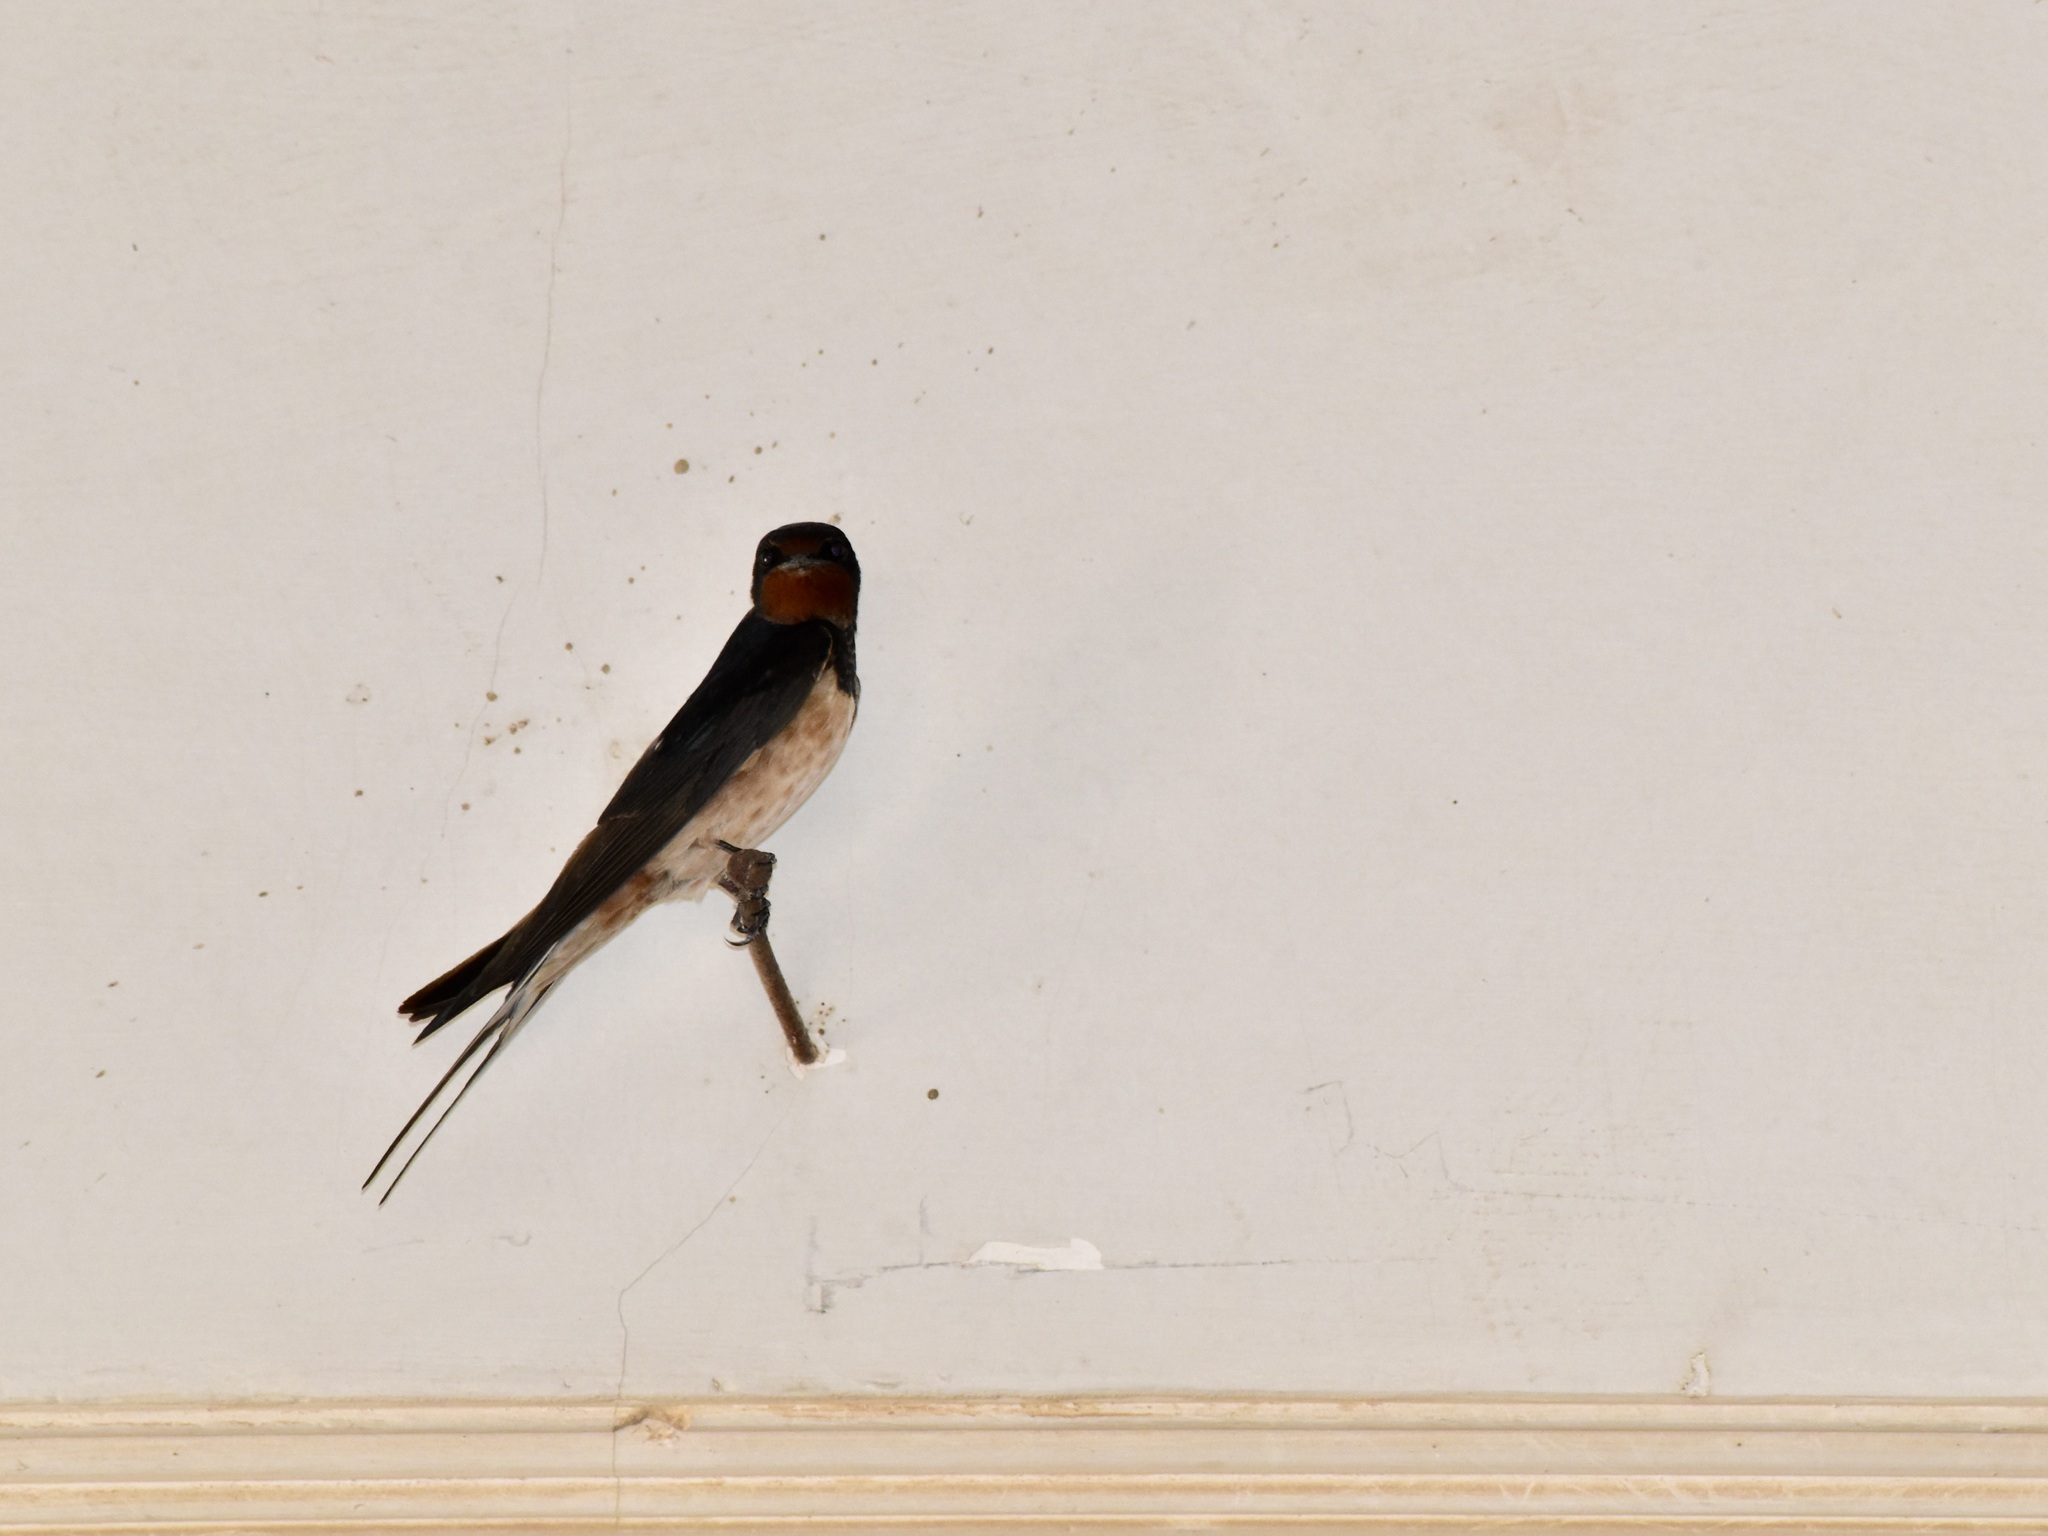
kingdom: Animalia
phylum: Chordata
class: Aves
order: Passeriformes
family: Hirundinidae
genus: Hirundo
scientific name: Hirundo rustica
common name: Barn swallow
